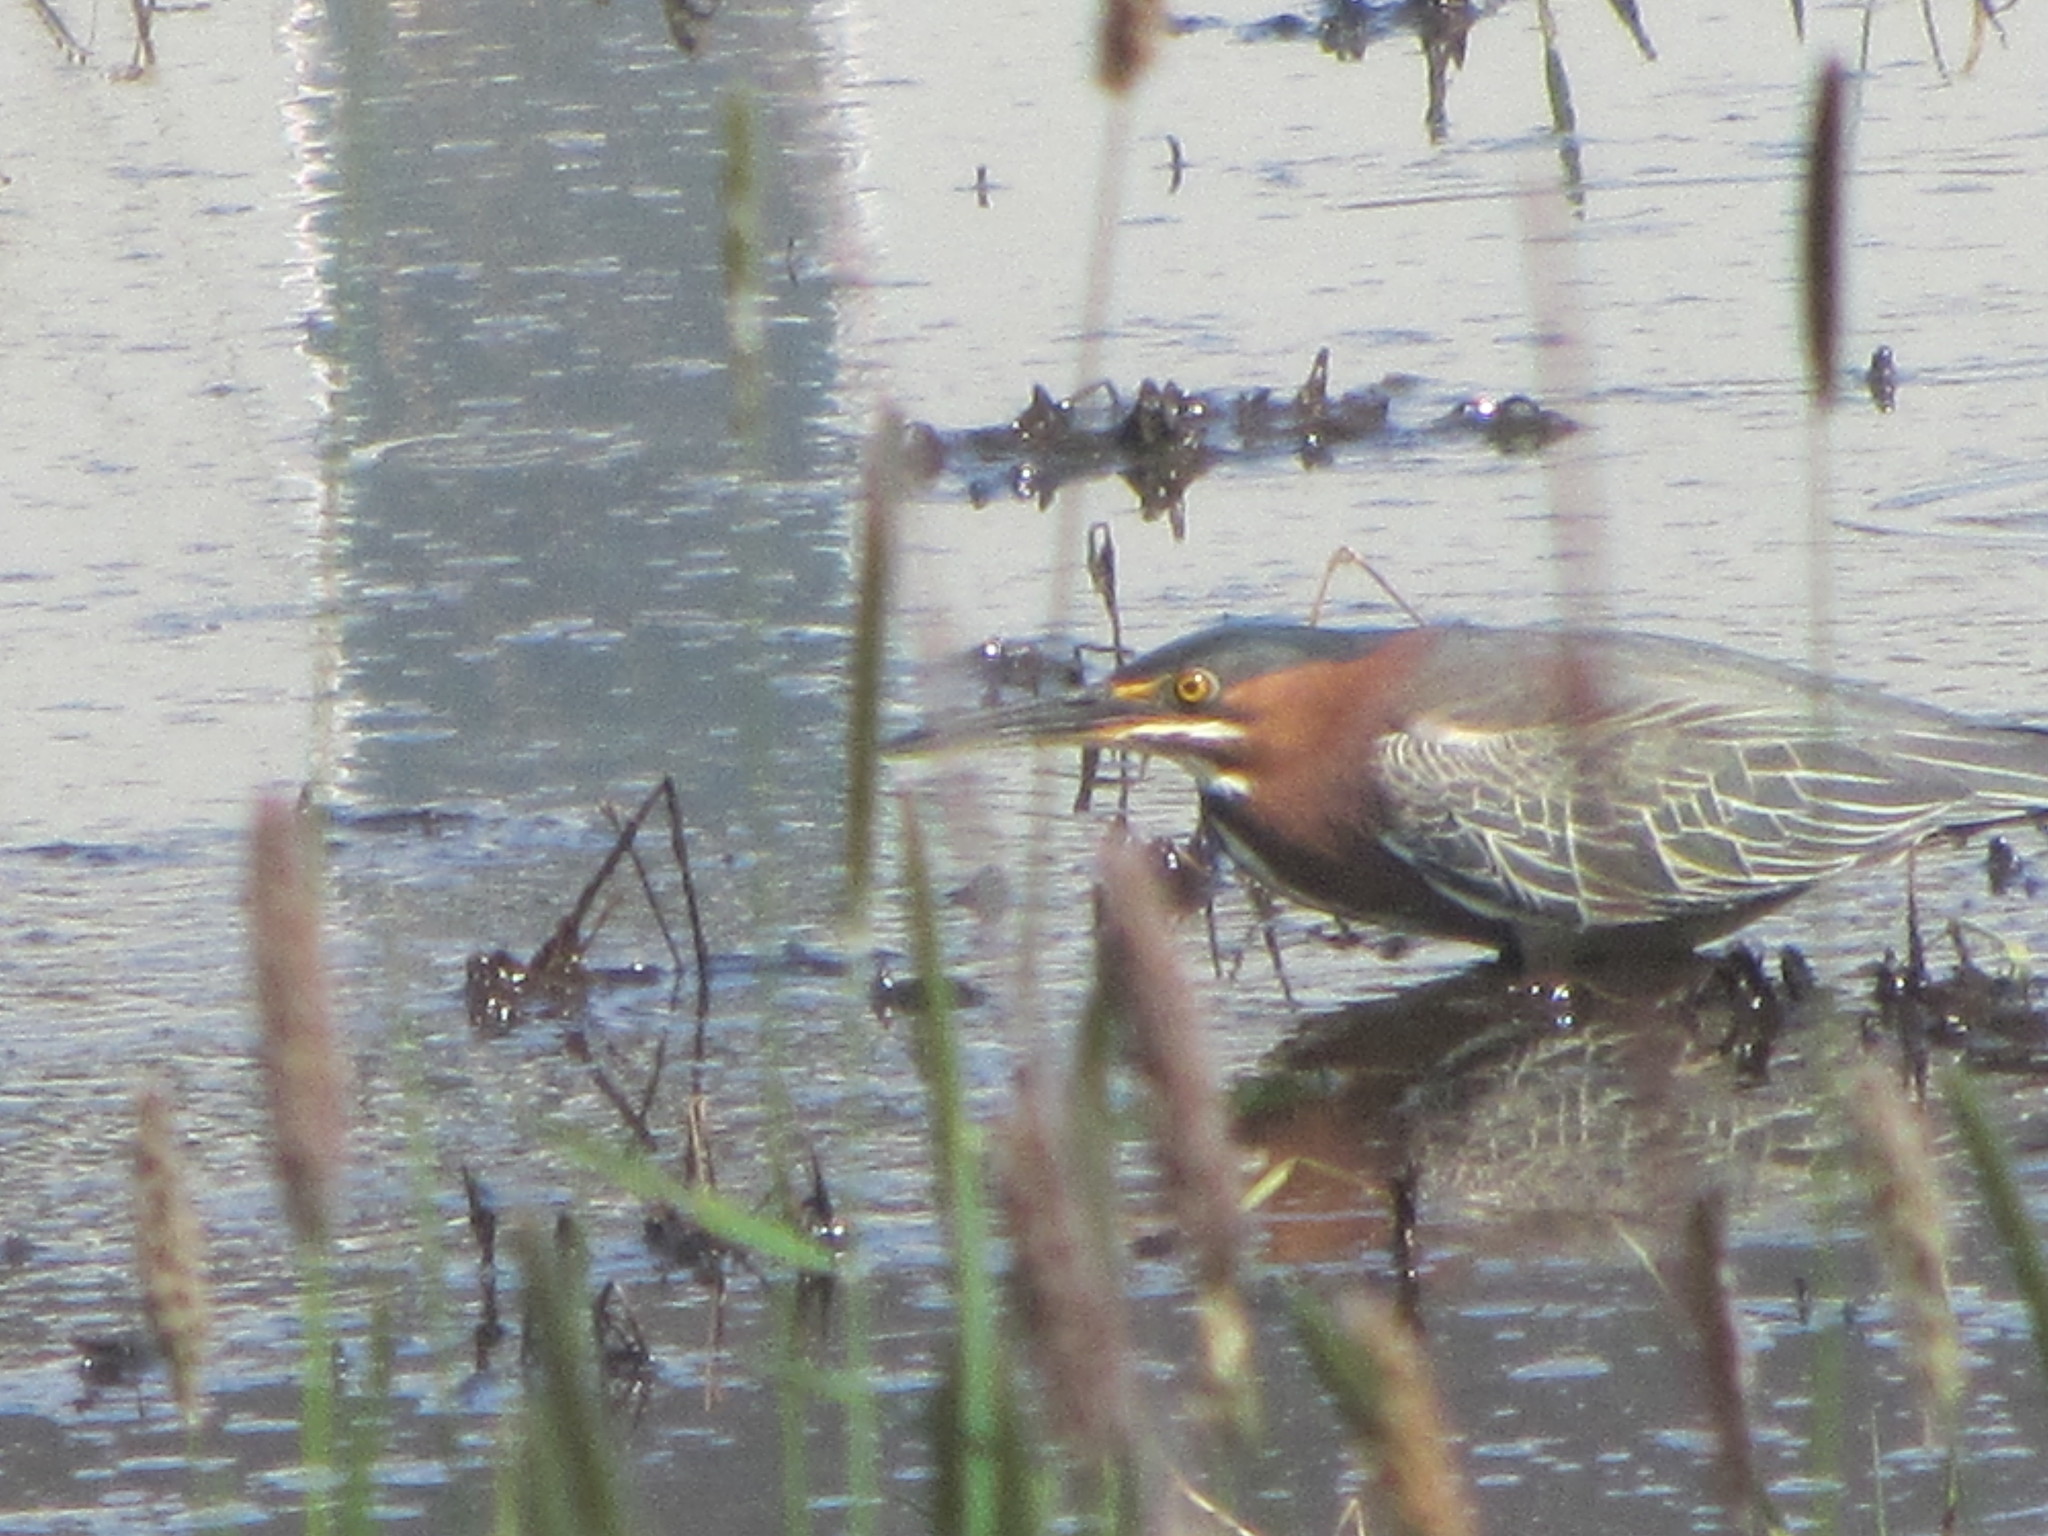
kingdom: Animalia
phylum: Chordata
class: Aves
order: Pelecaniformes
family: Ardeidae
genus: Butorides
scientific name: Butorides virescens
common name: Green heron
